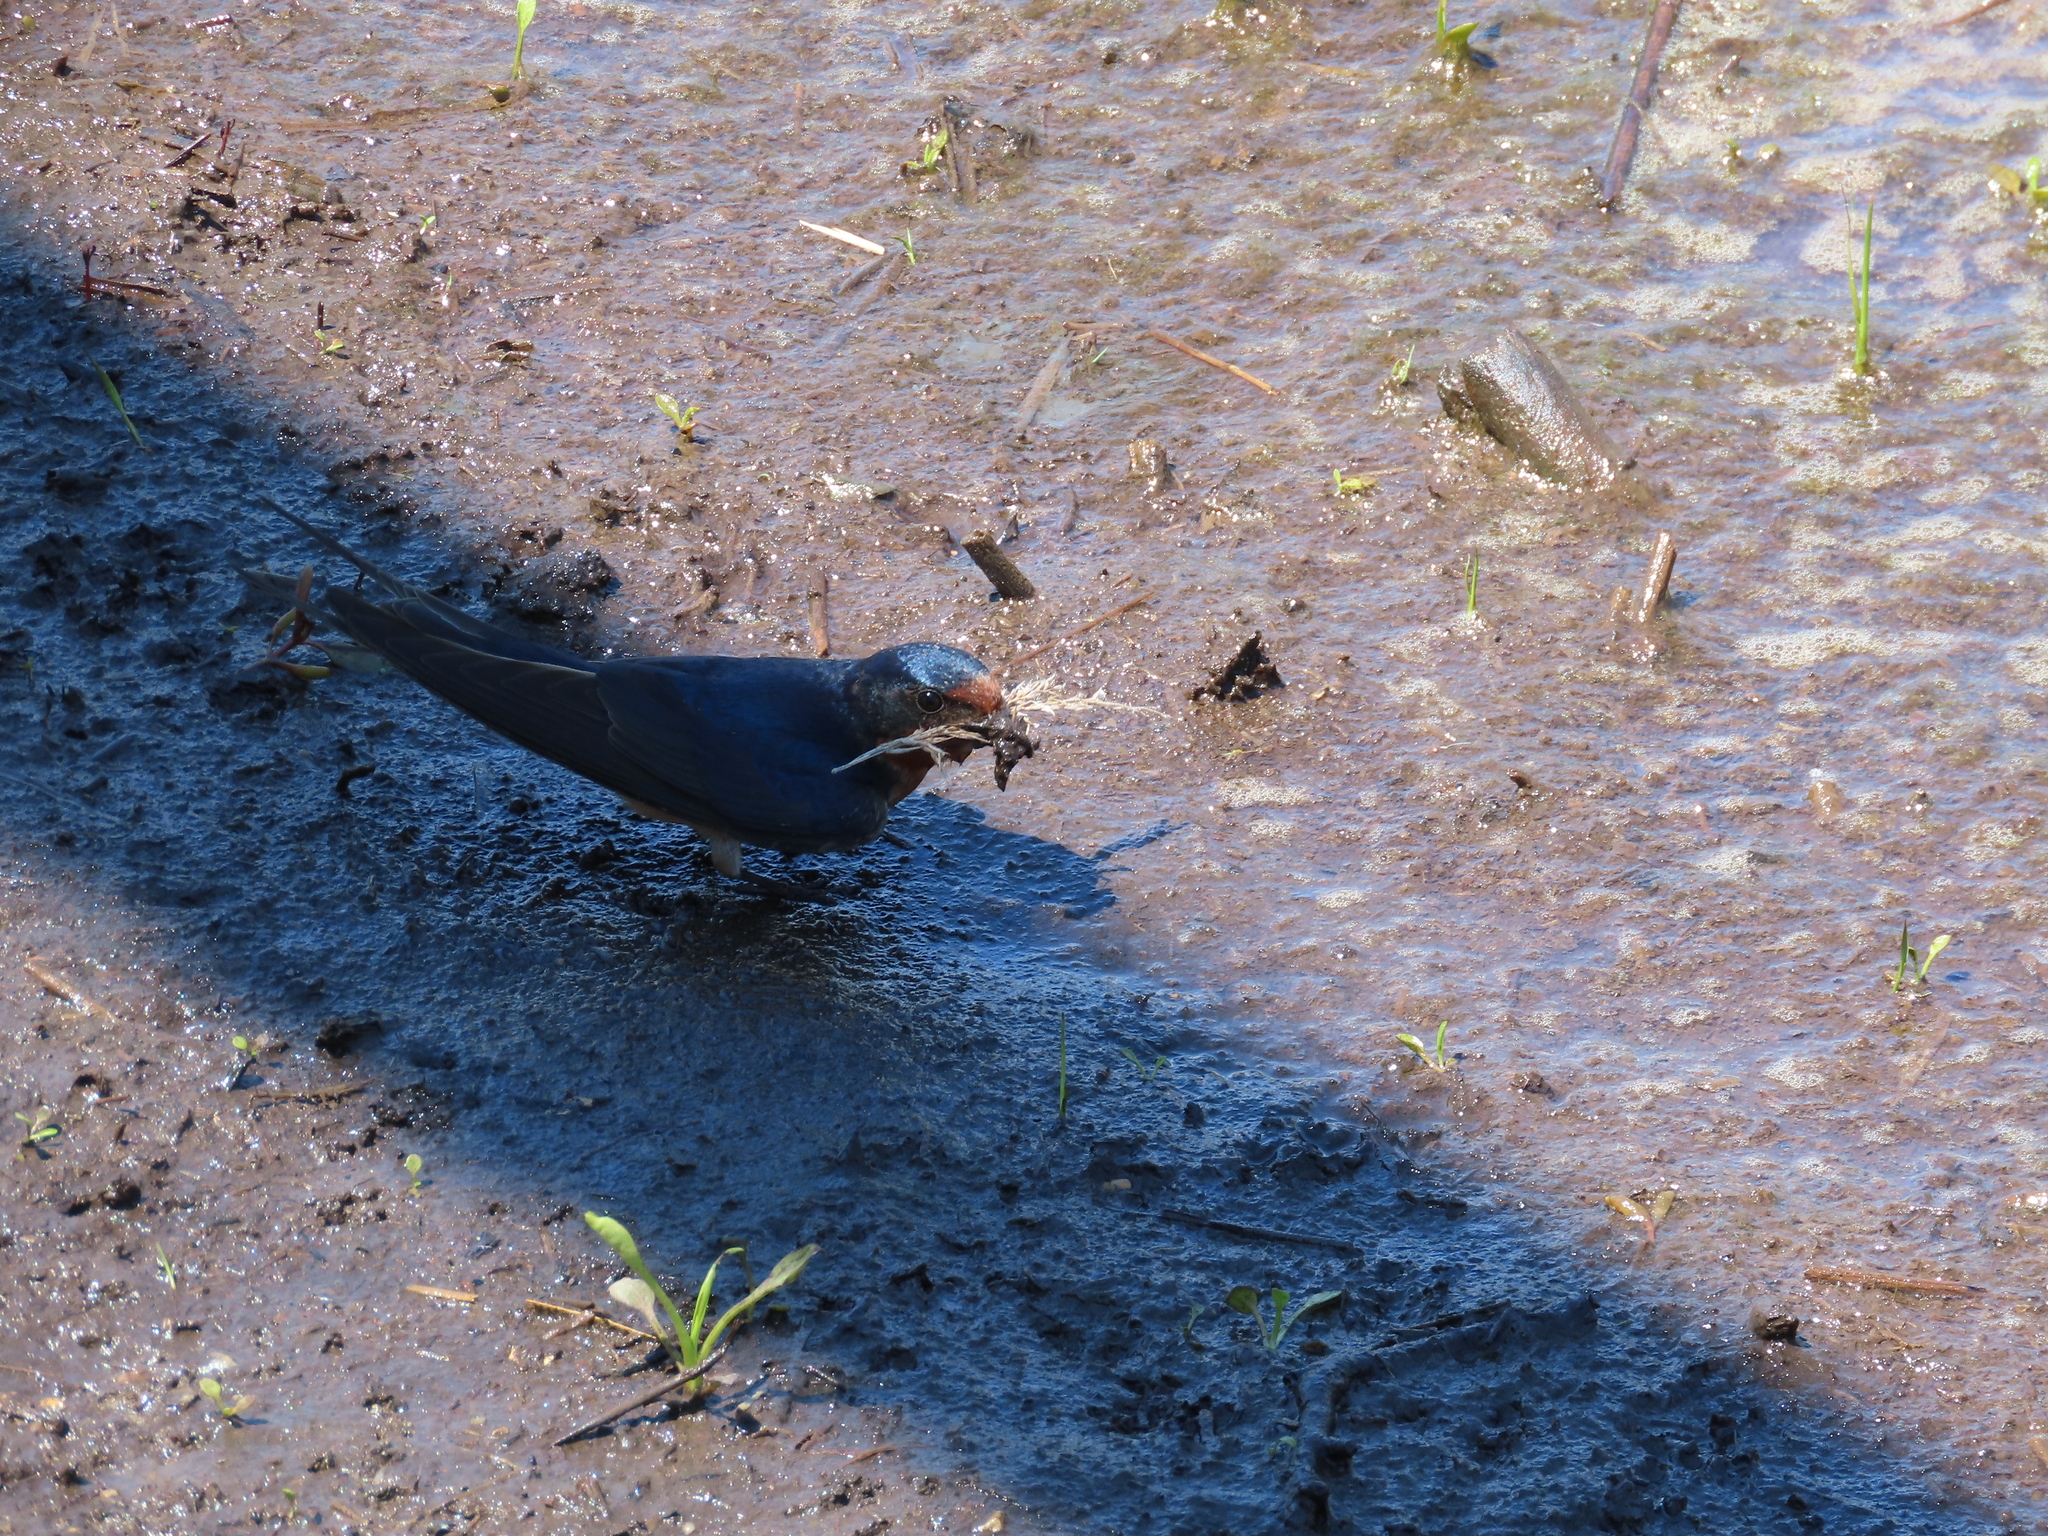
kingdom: Animalia
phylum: Chordata
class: Aves
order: Passeriformes
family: Hirundinidae
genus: Hirundo
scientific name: Hirundo rustica
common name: Barn swallow
